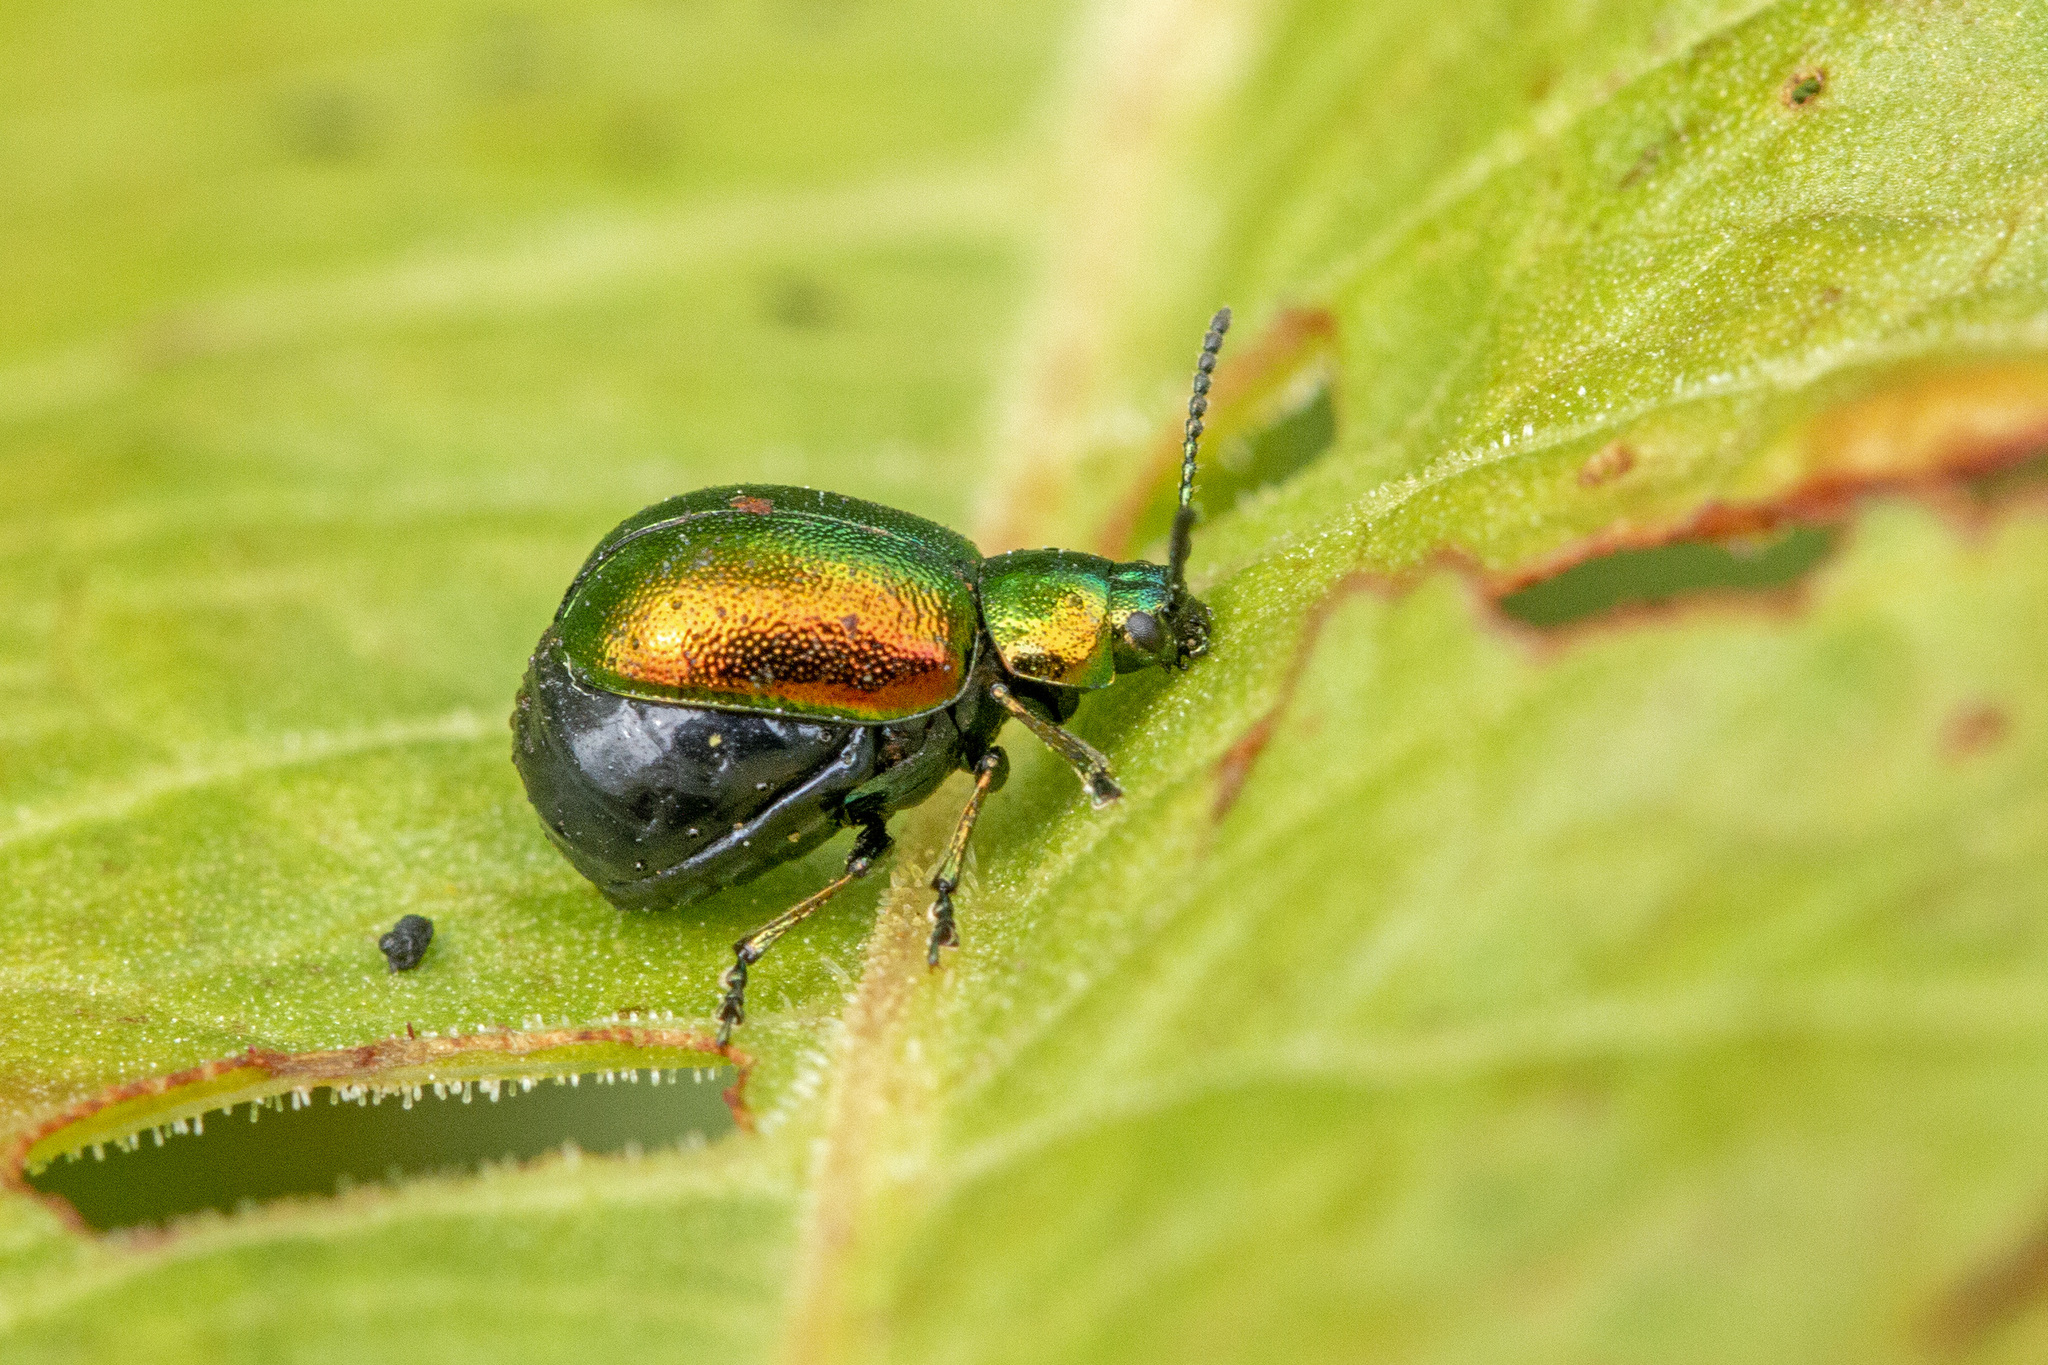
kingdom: Animalia
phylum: Arthropoda
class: Insecta
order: Coleoptera
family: Chrysomelidae
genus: Gastrophysa
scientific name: Gastrophysa viridula
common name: Green dock beetle
